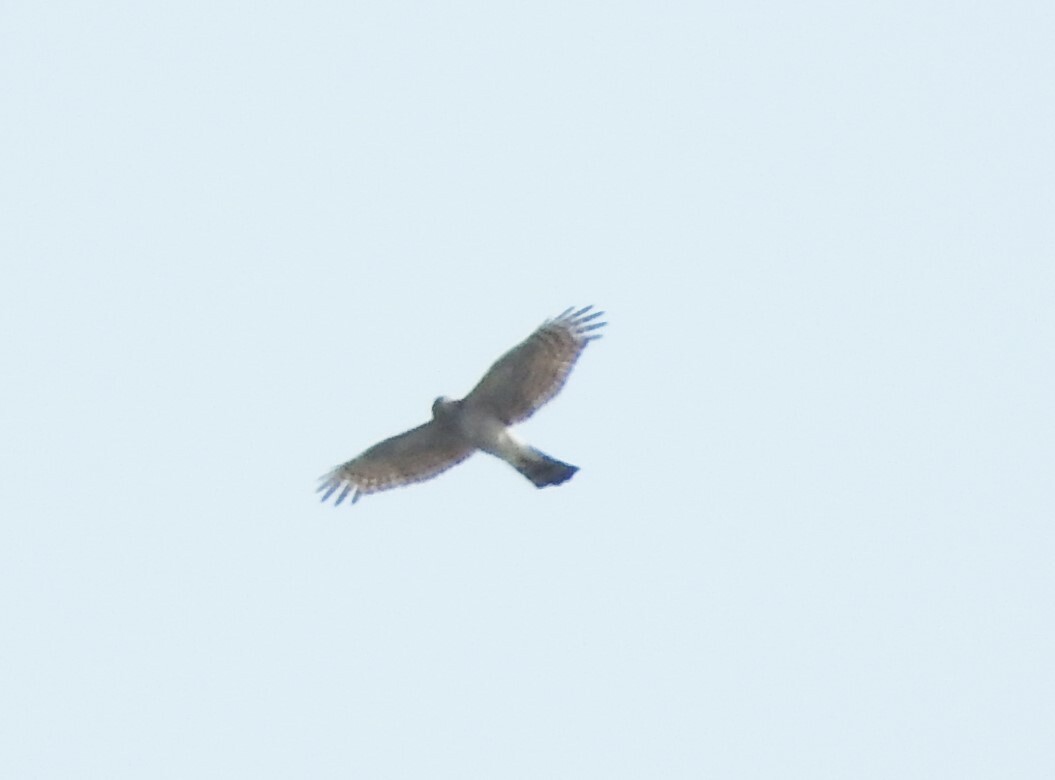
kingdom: Animalia
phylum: Chordata
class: Aves
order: Accipitriformes
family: Accipitridae
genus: Accipiter
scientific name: Accipiter nisus
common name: Eurasian sparrowhawk
